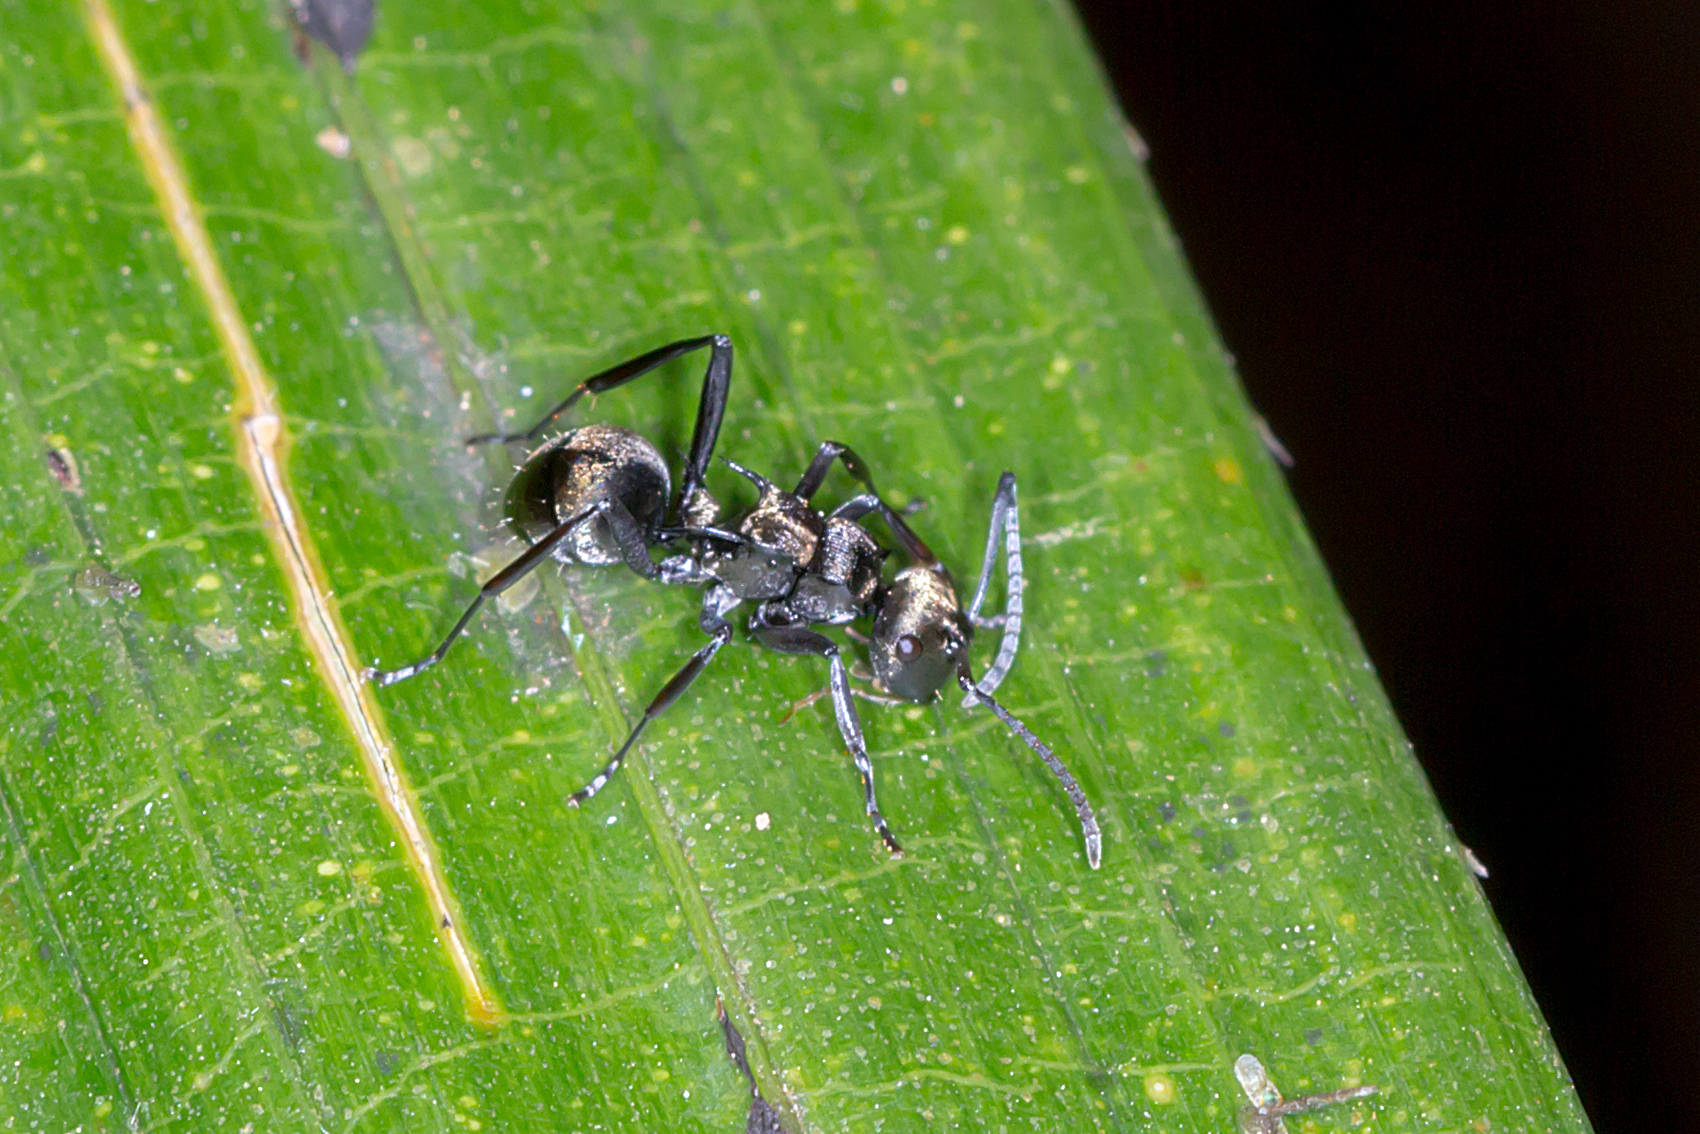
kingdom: Animalia
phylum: Arthropoda
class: Insecta
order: Hymenoptera
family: Formicidae
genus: Polyrhachis
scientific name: Polyrhachis cupreata
